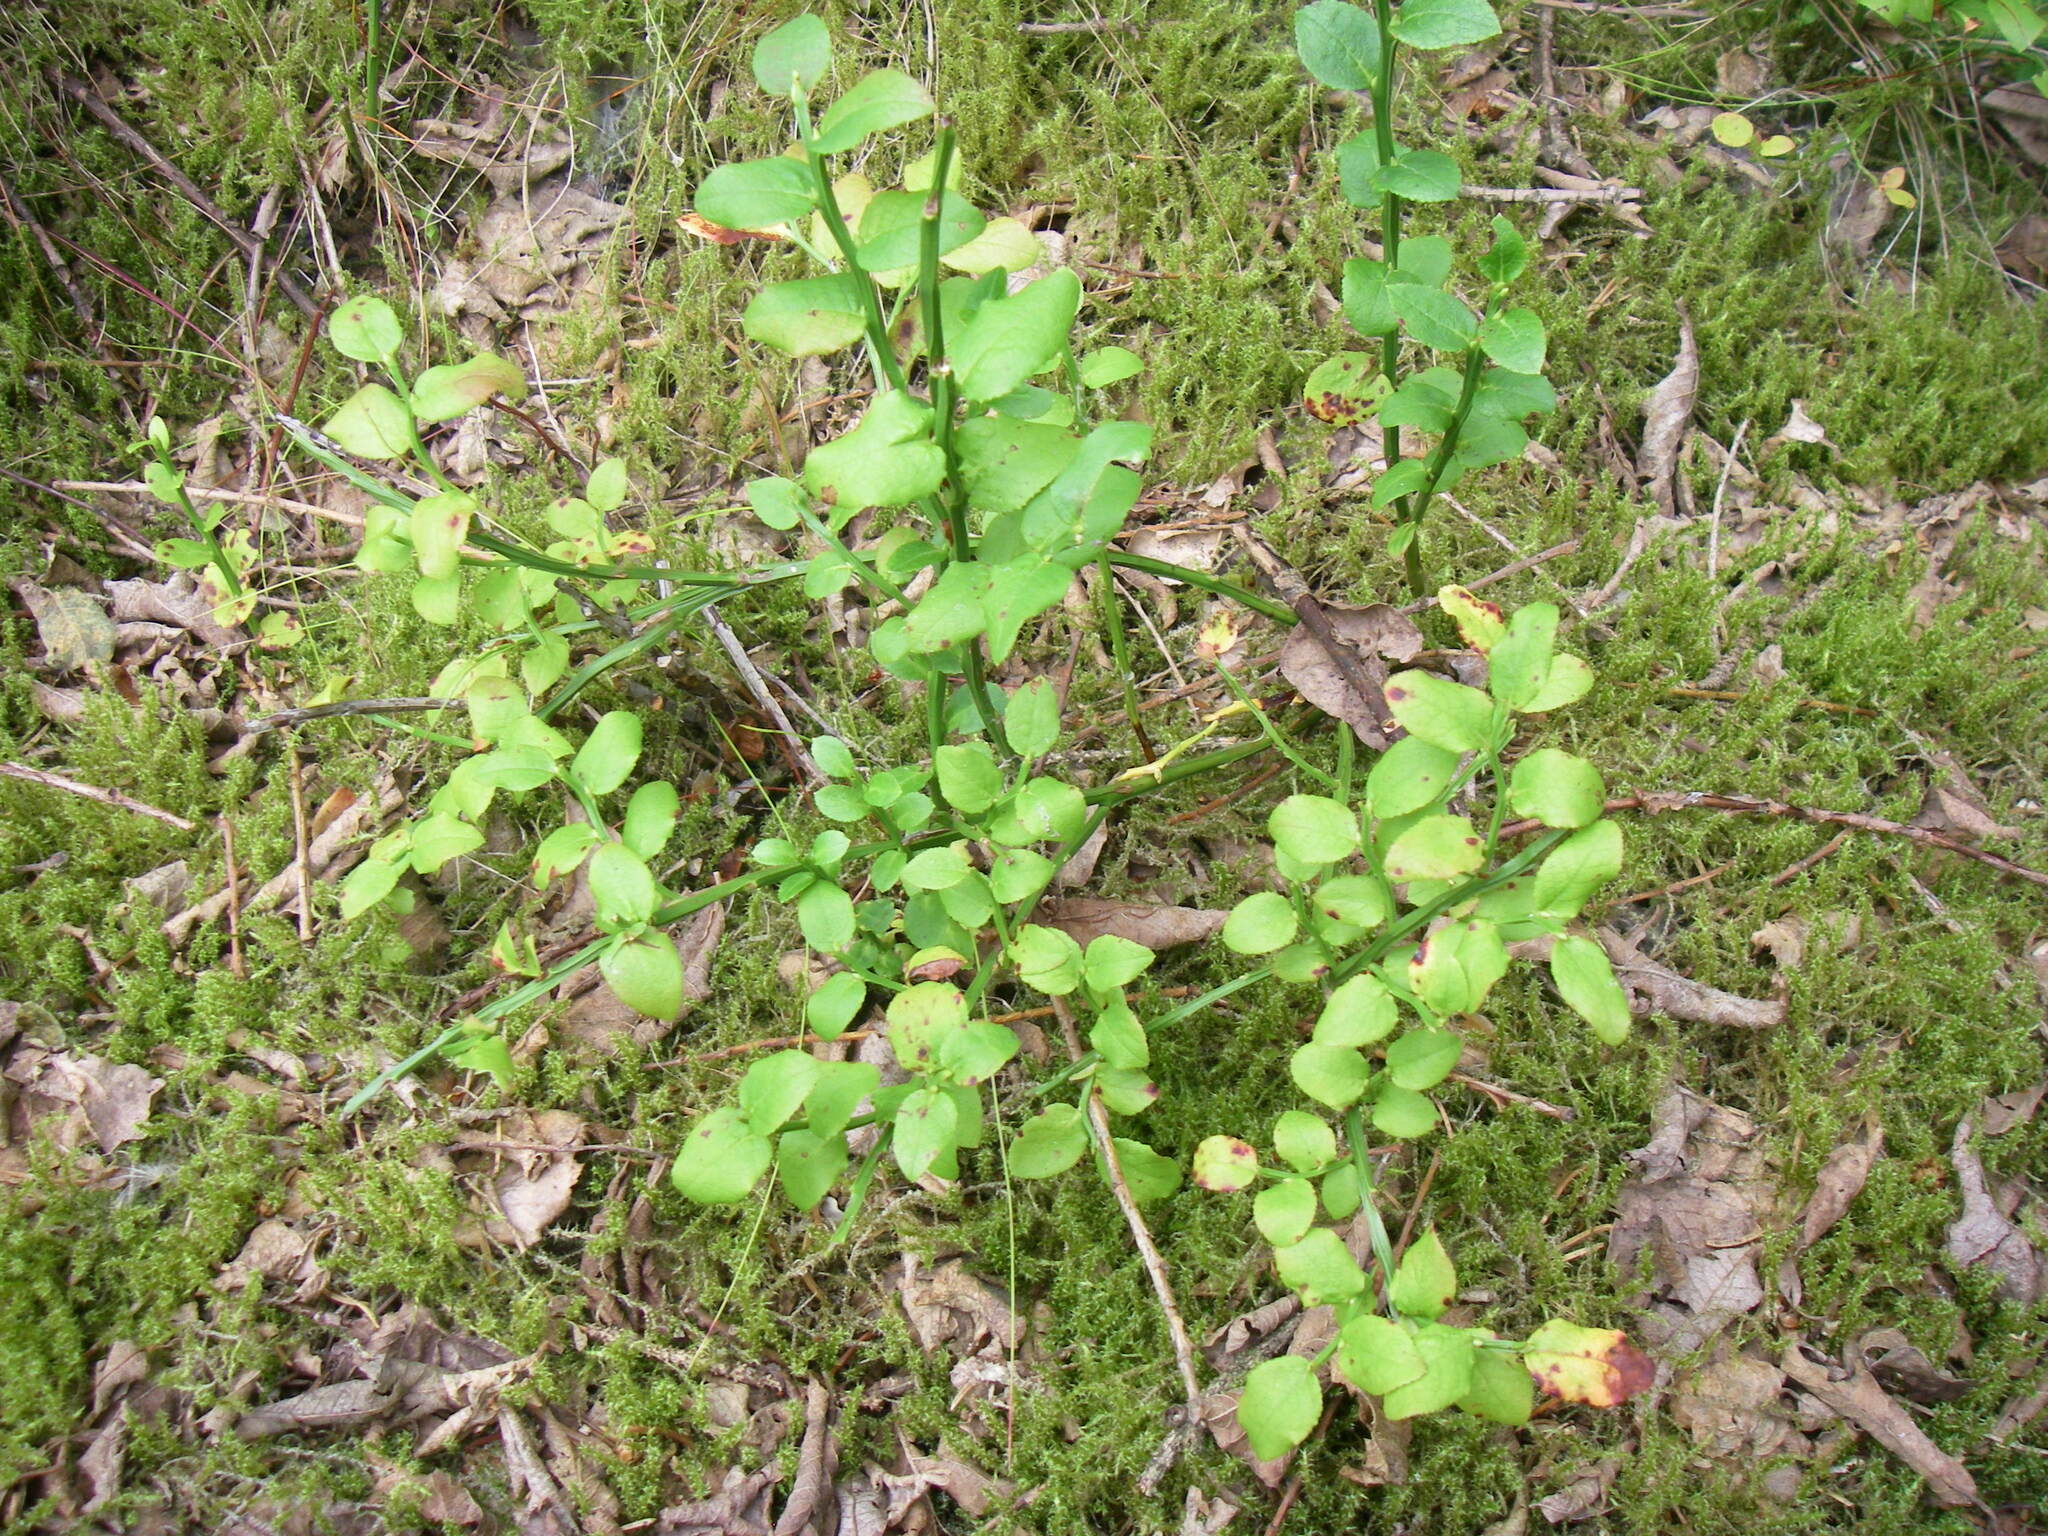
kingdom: Plantae
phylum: Tracheophyta
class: Magnoliopsida
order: Ericales
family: Ericaceae
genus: Vaccinium
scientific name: Vaccinium myrtillus
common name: Bilberry
